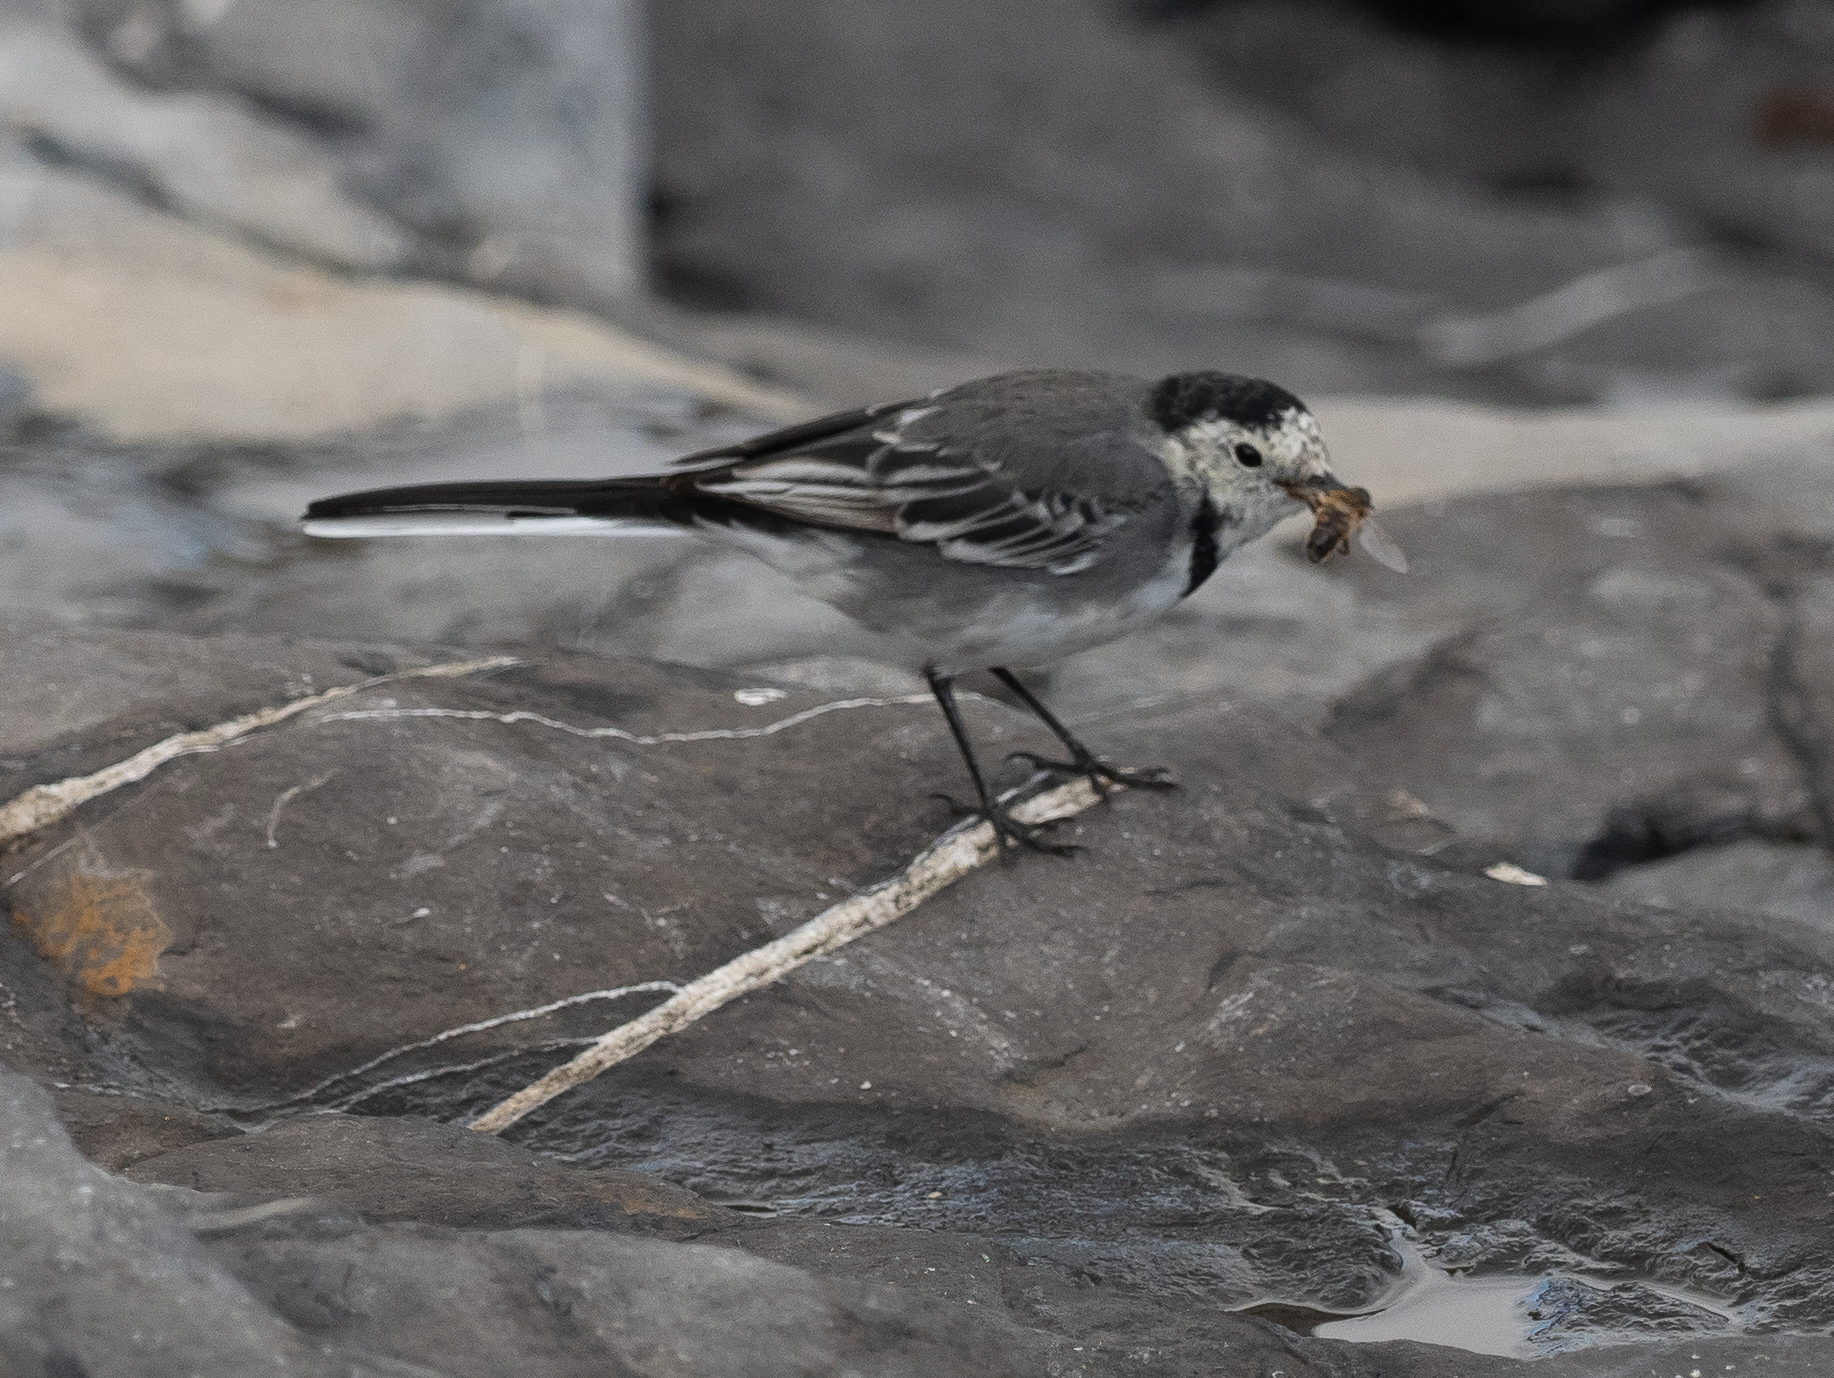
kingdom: Animalia
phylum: Chordata
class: Aves
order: Passeriformes
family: Motacillidae
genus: Motacilla
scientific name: Motacilla alba
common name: White wagtail
